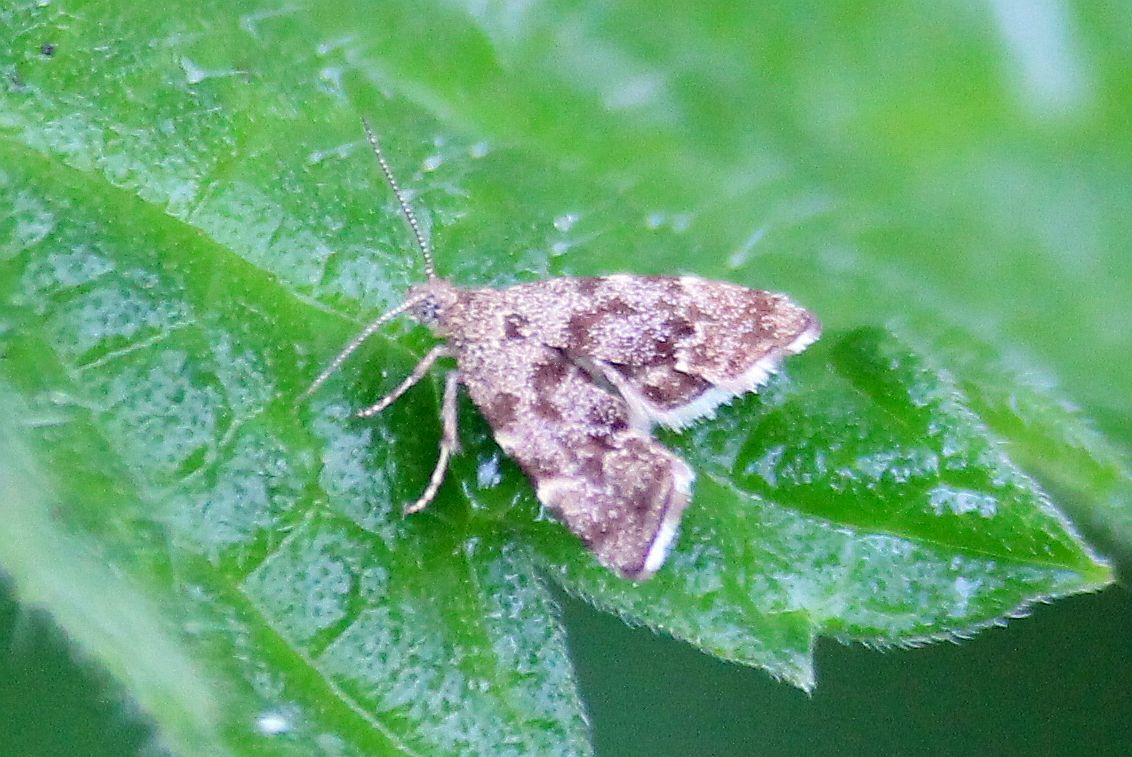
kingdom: Animalia
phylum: Arthropoda
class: Insecta
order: Lepidoptera
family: Choreutidae
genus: Anthophila
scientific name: Anthophila fabriciana
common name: Nettle-tap
